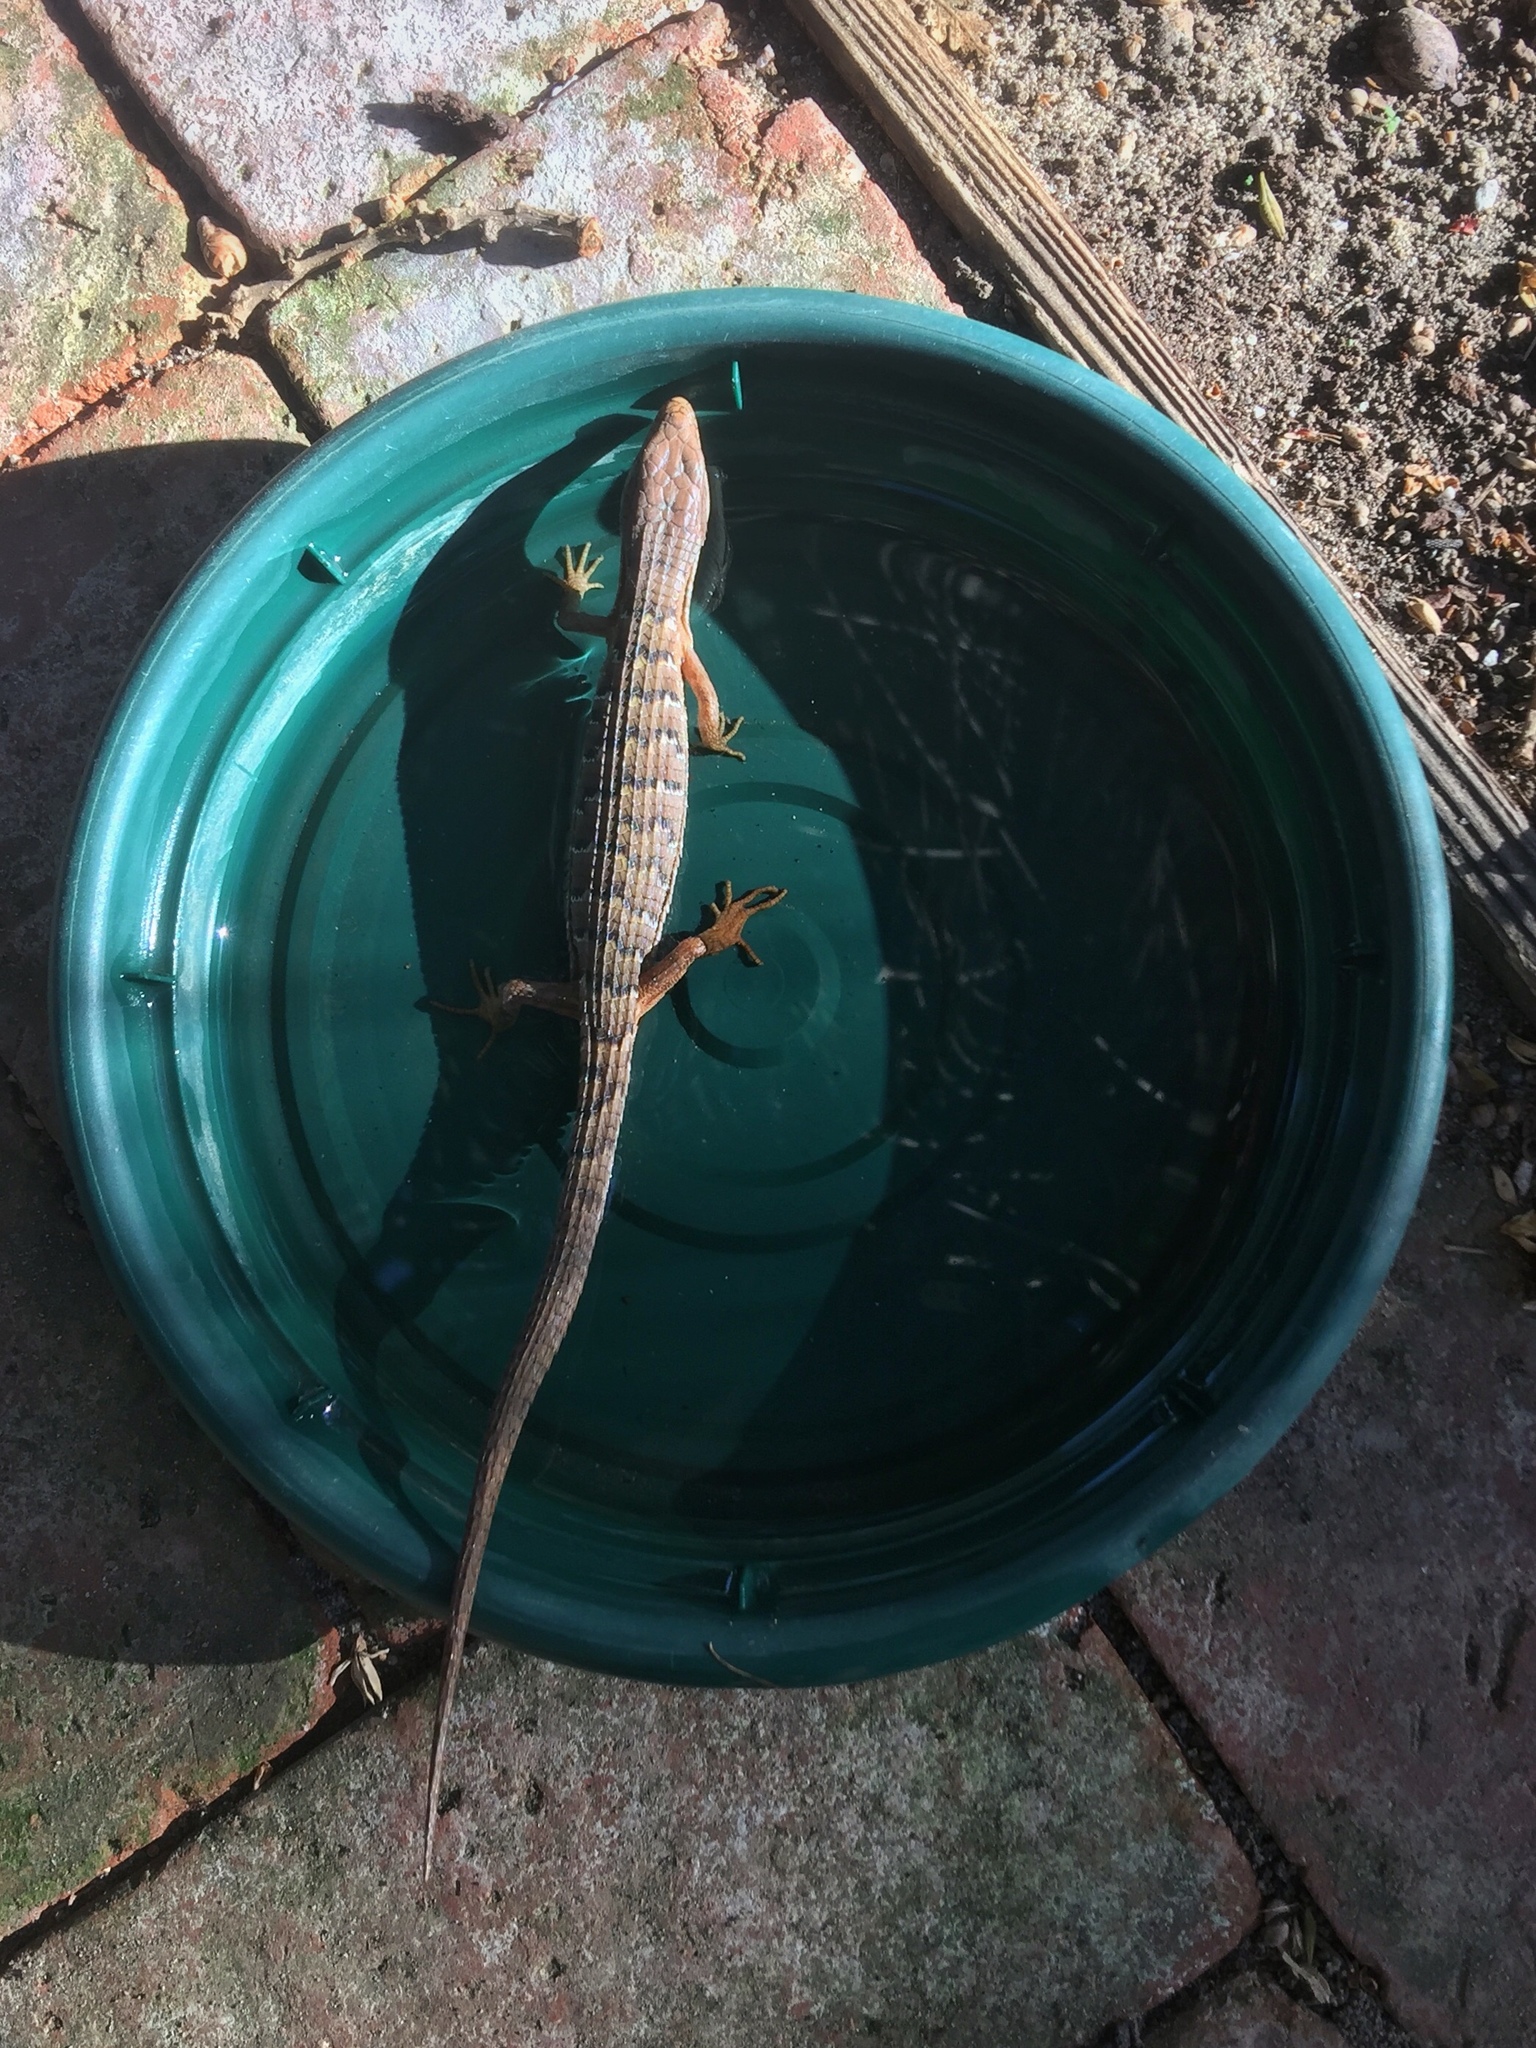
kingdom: Animalia
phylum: Chordata
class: Squamata
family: Anguidae
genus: Elgaria
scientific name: Elgaria multicarinata
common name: Southern alligator lizard
